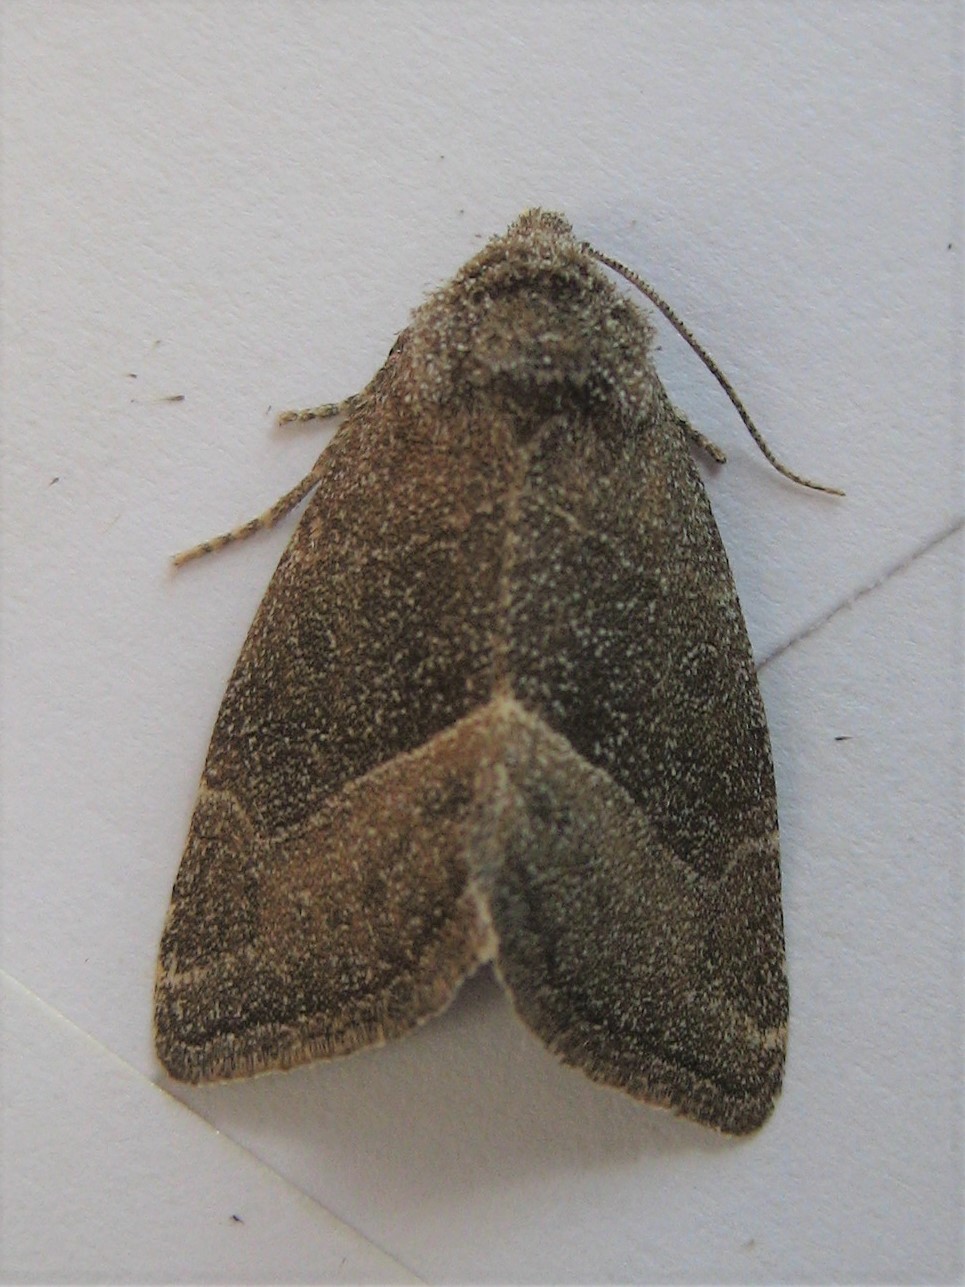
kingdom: Animalia
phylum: Arthropoda
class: Insecta
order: Lepidoptera
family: Noctuidae
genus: Plagiomimicus
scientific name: Plagiomimicus spumosum
